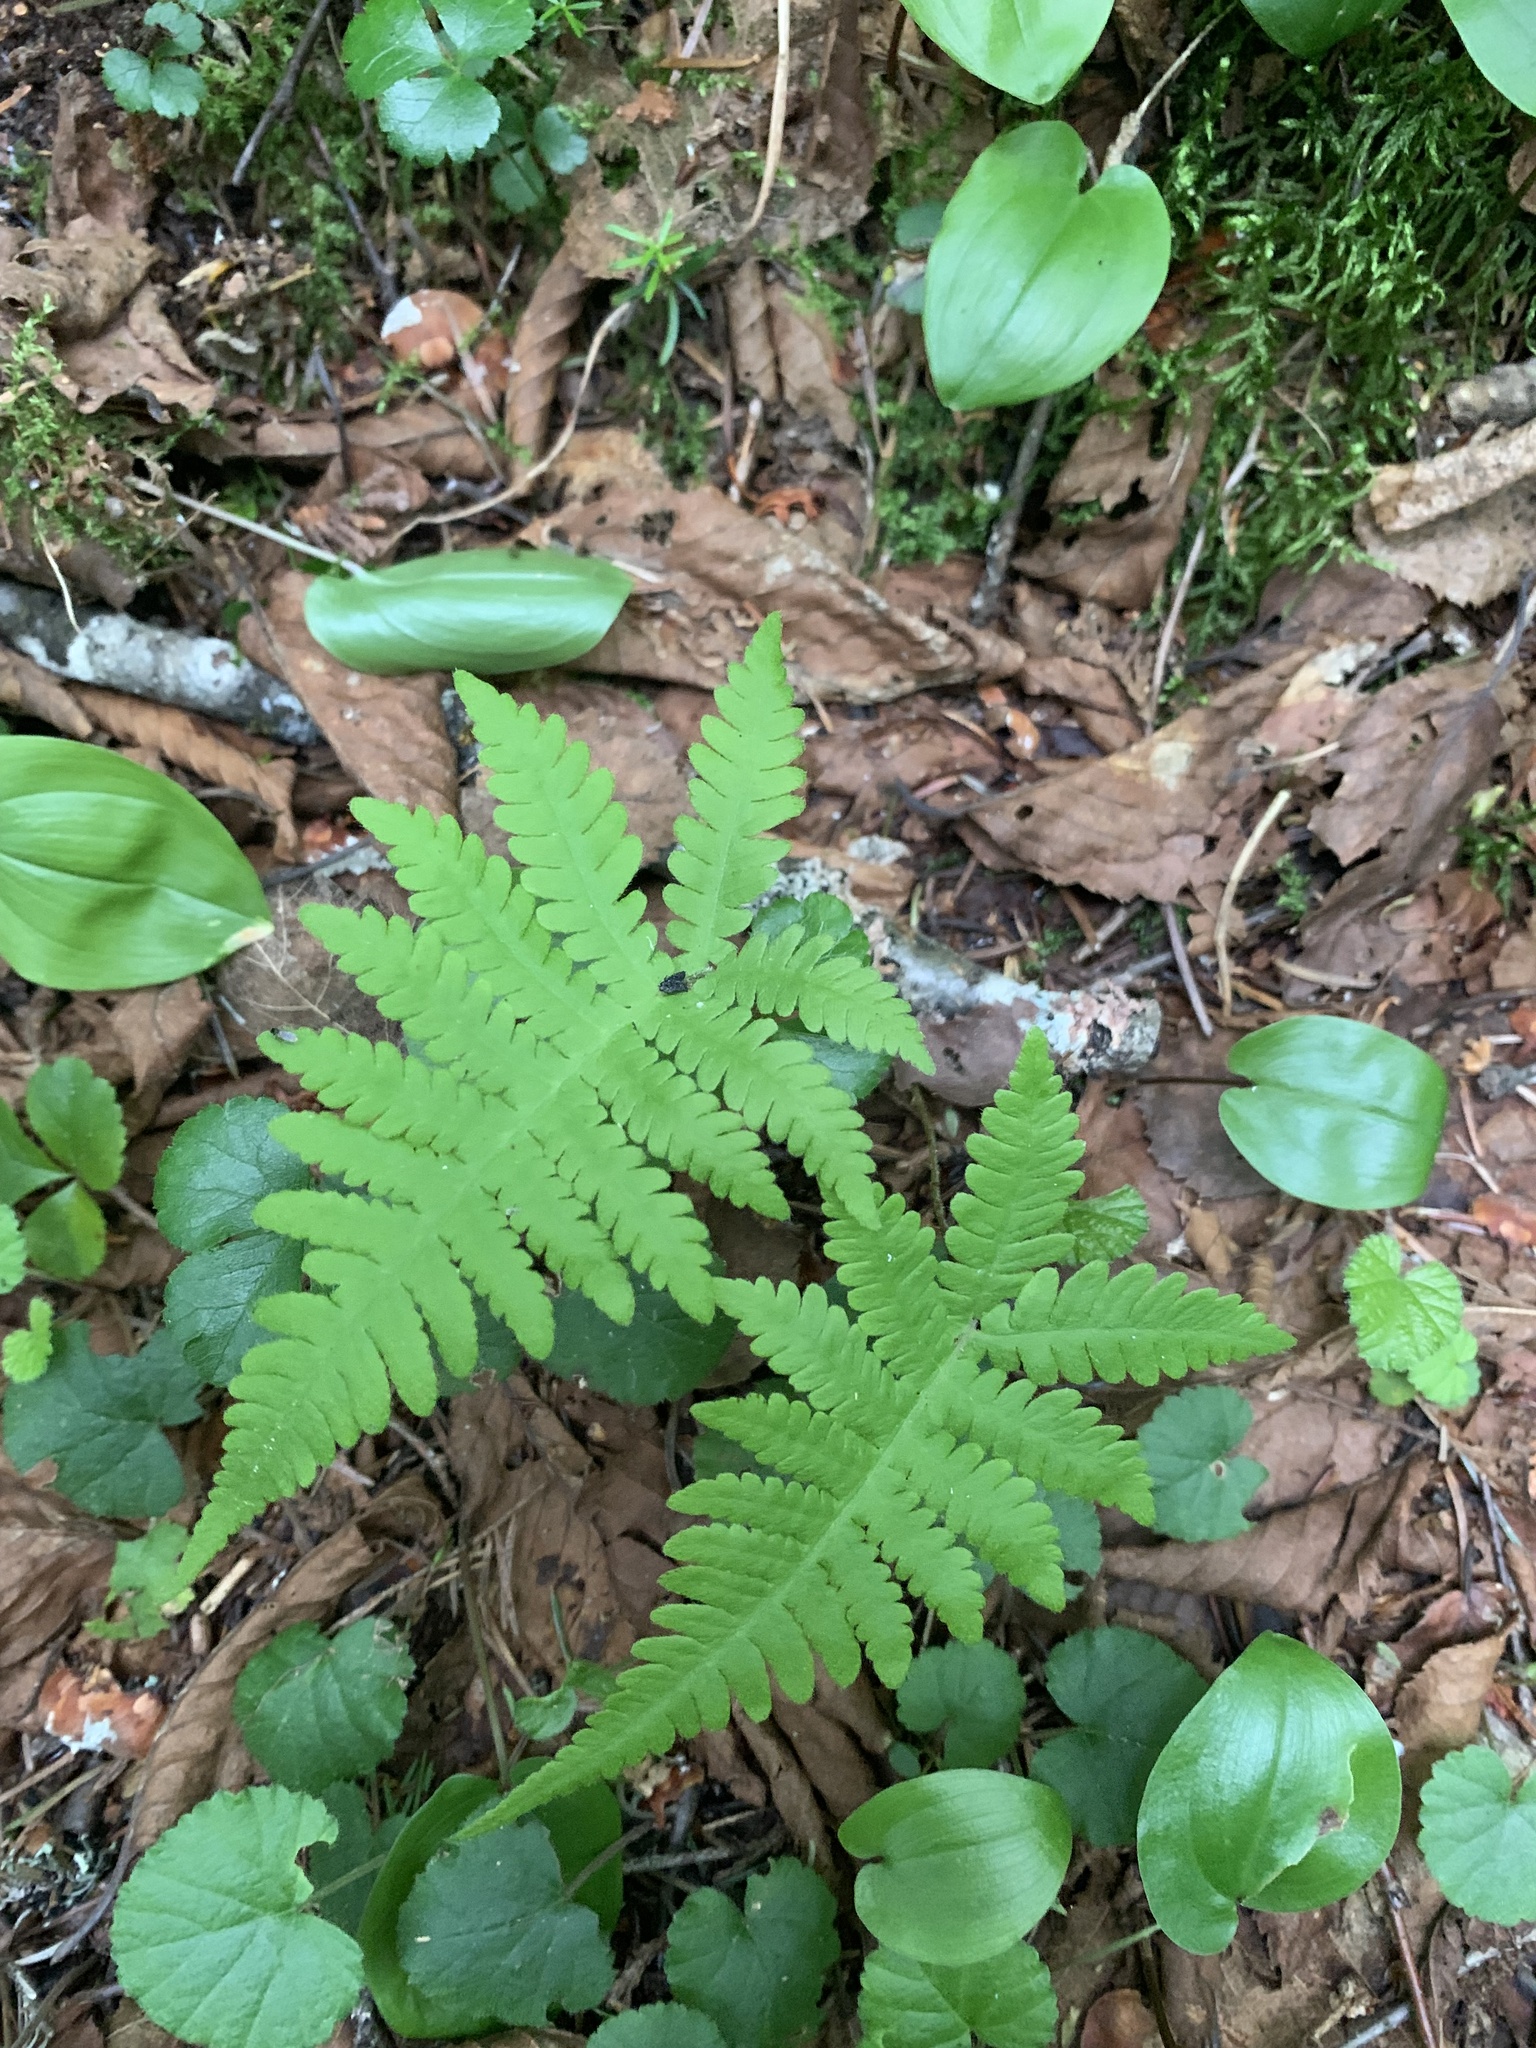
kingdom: Plantae
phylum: Tracheophyta
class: Polypodiopsida
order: Polypodiales
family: Thelypteridaceae
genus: Phegopteris
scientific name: Phegopteris connectilis
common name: Beech fern
